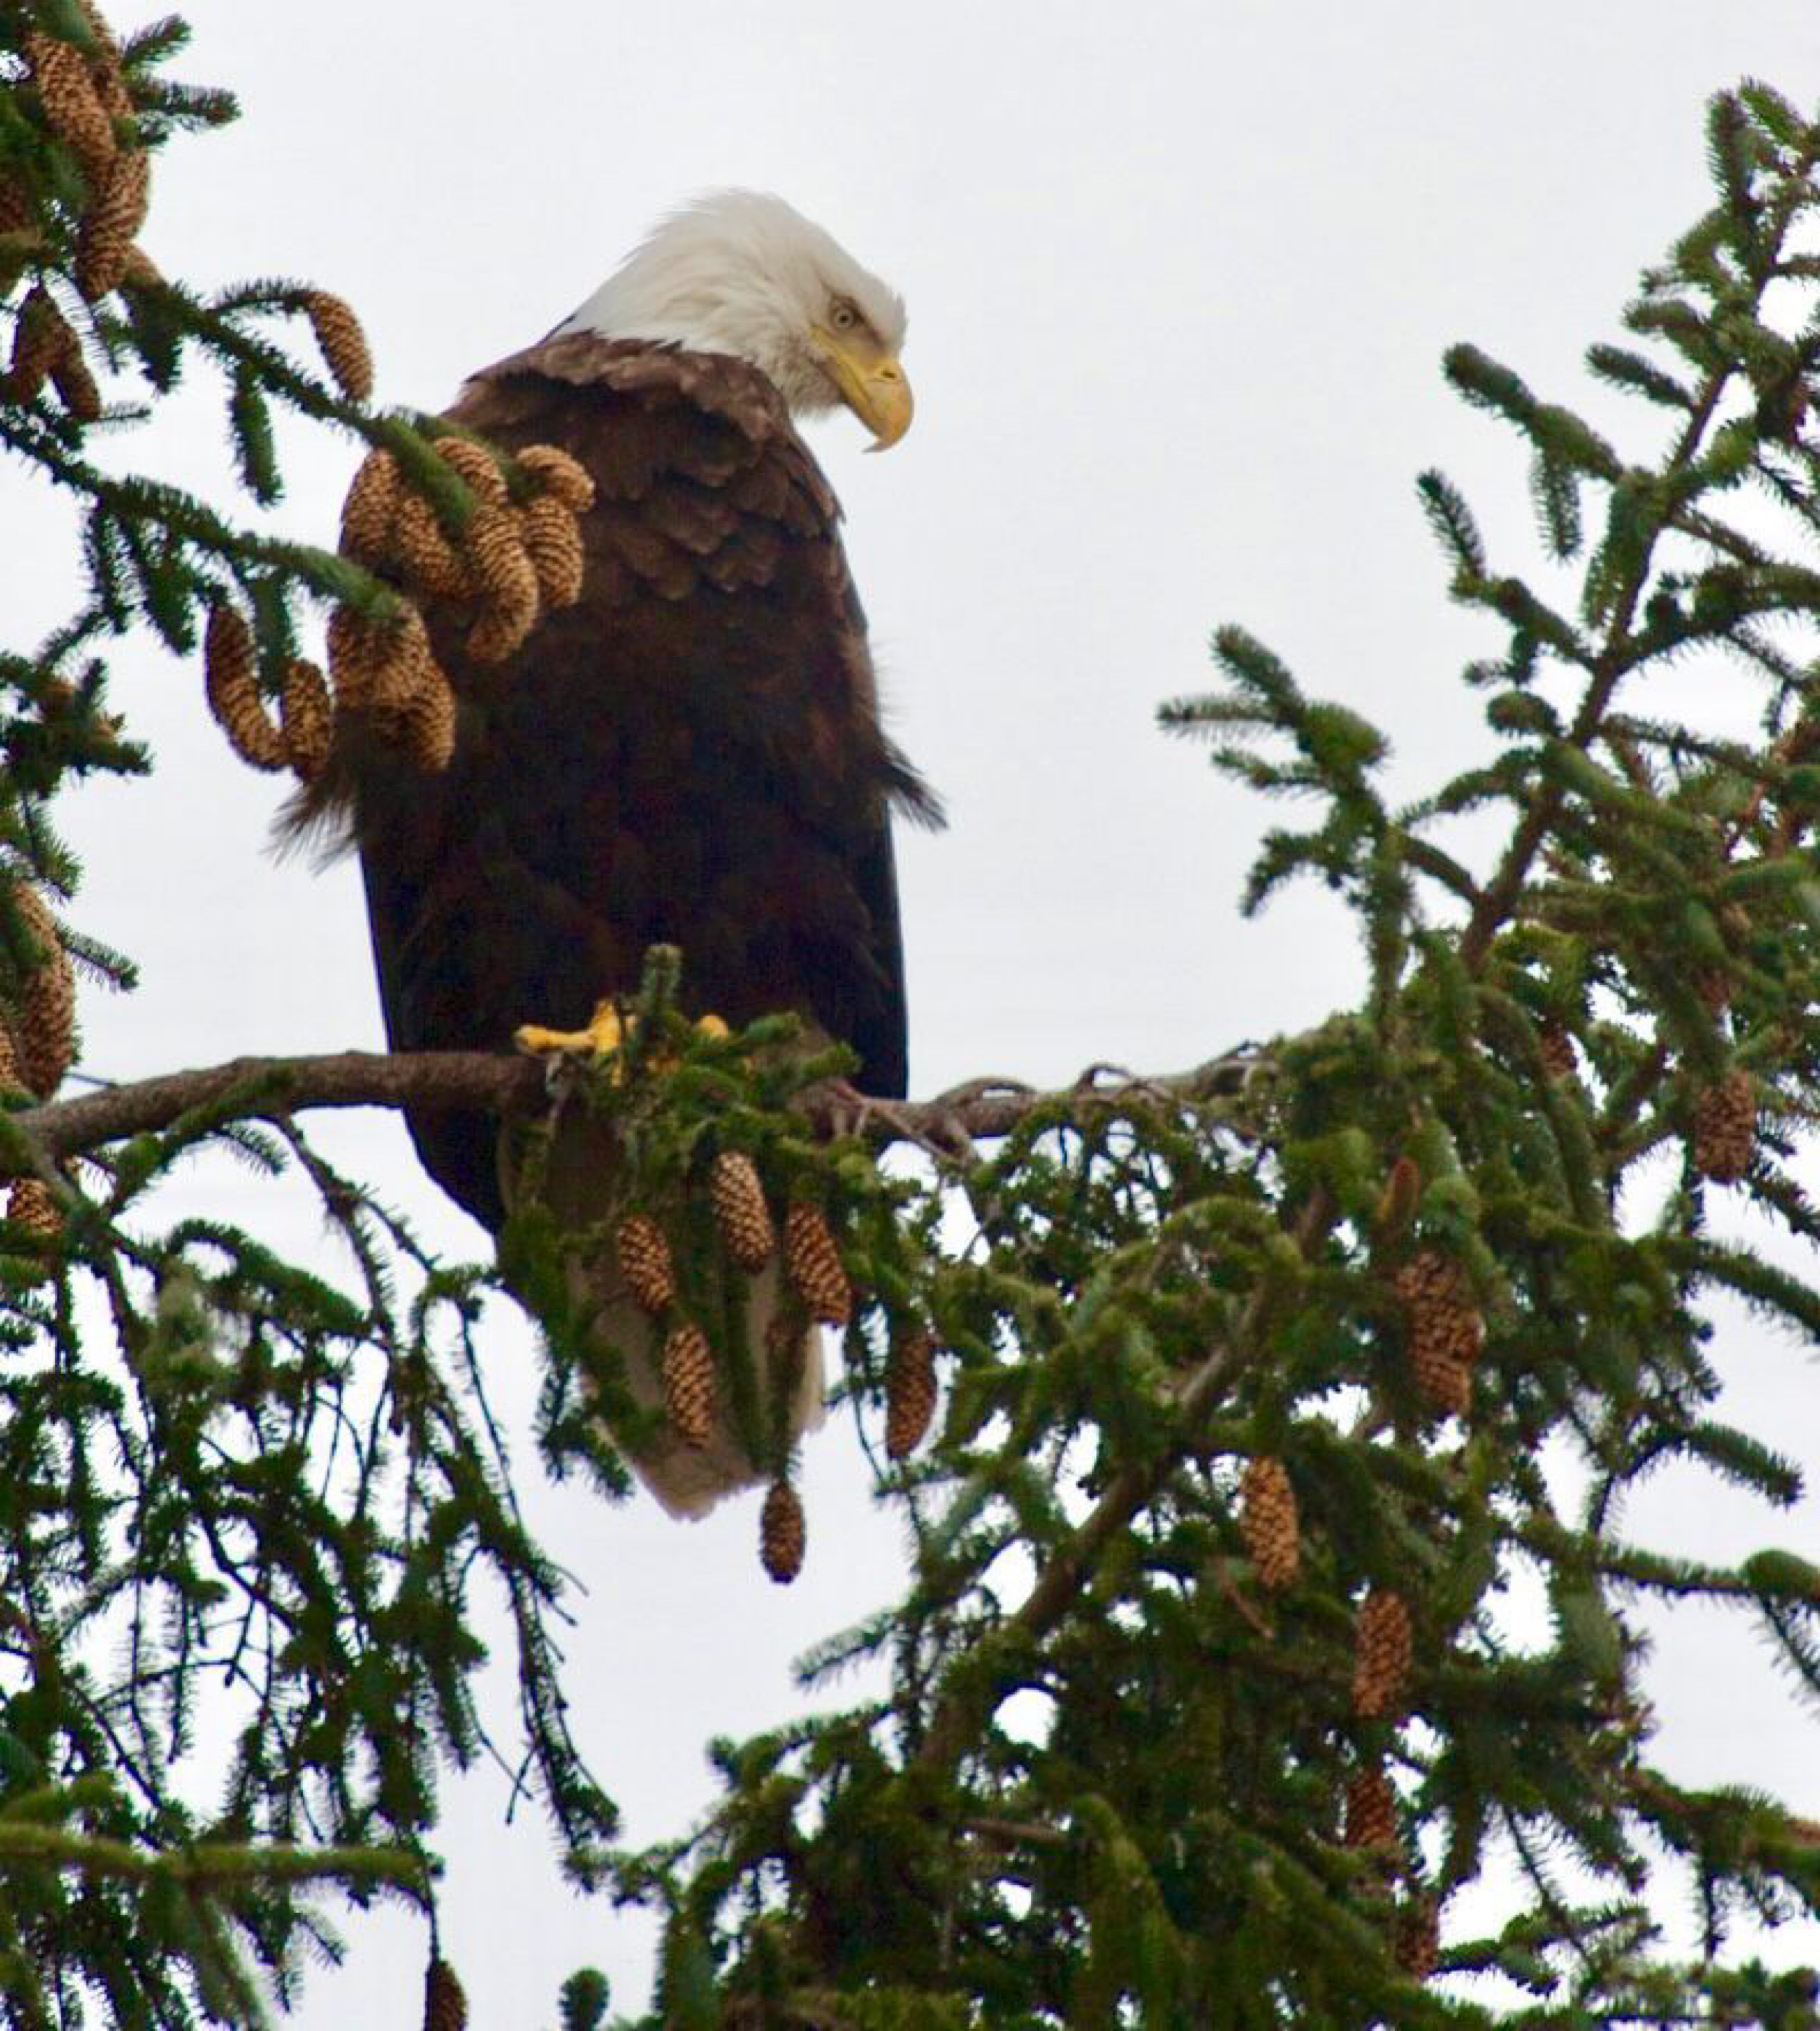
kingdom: Animalia
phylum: Chordata
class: Aves
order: Accipitriformes
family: Accipitridae
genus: Haliaeetus
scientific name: Haliaeetus leucocephalus
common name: Bald eagle
